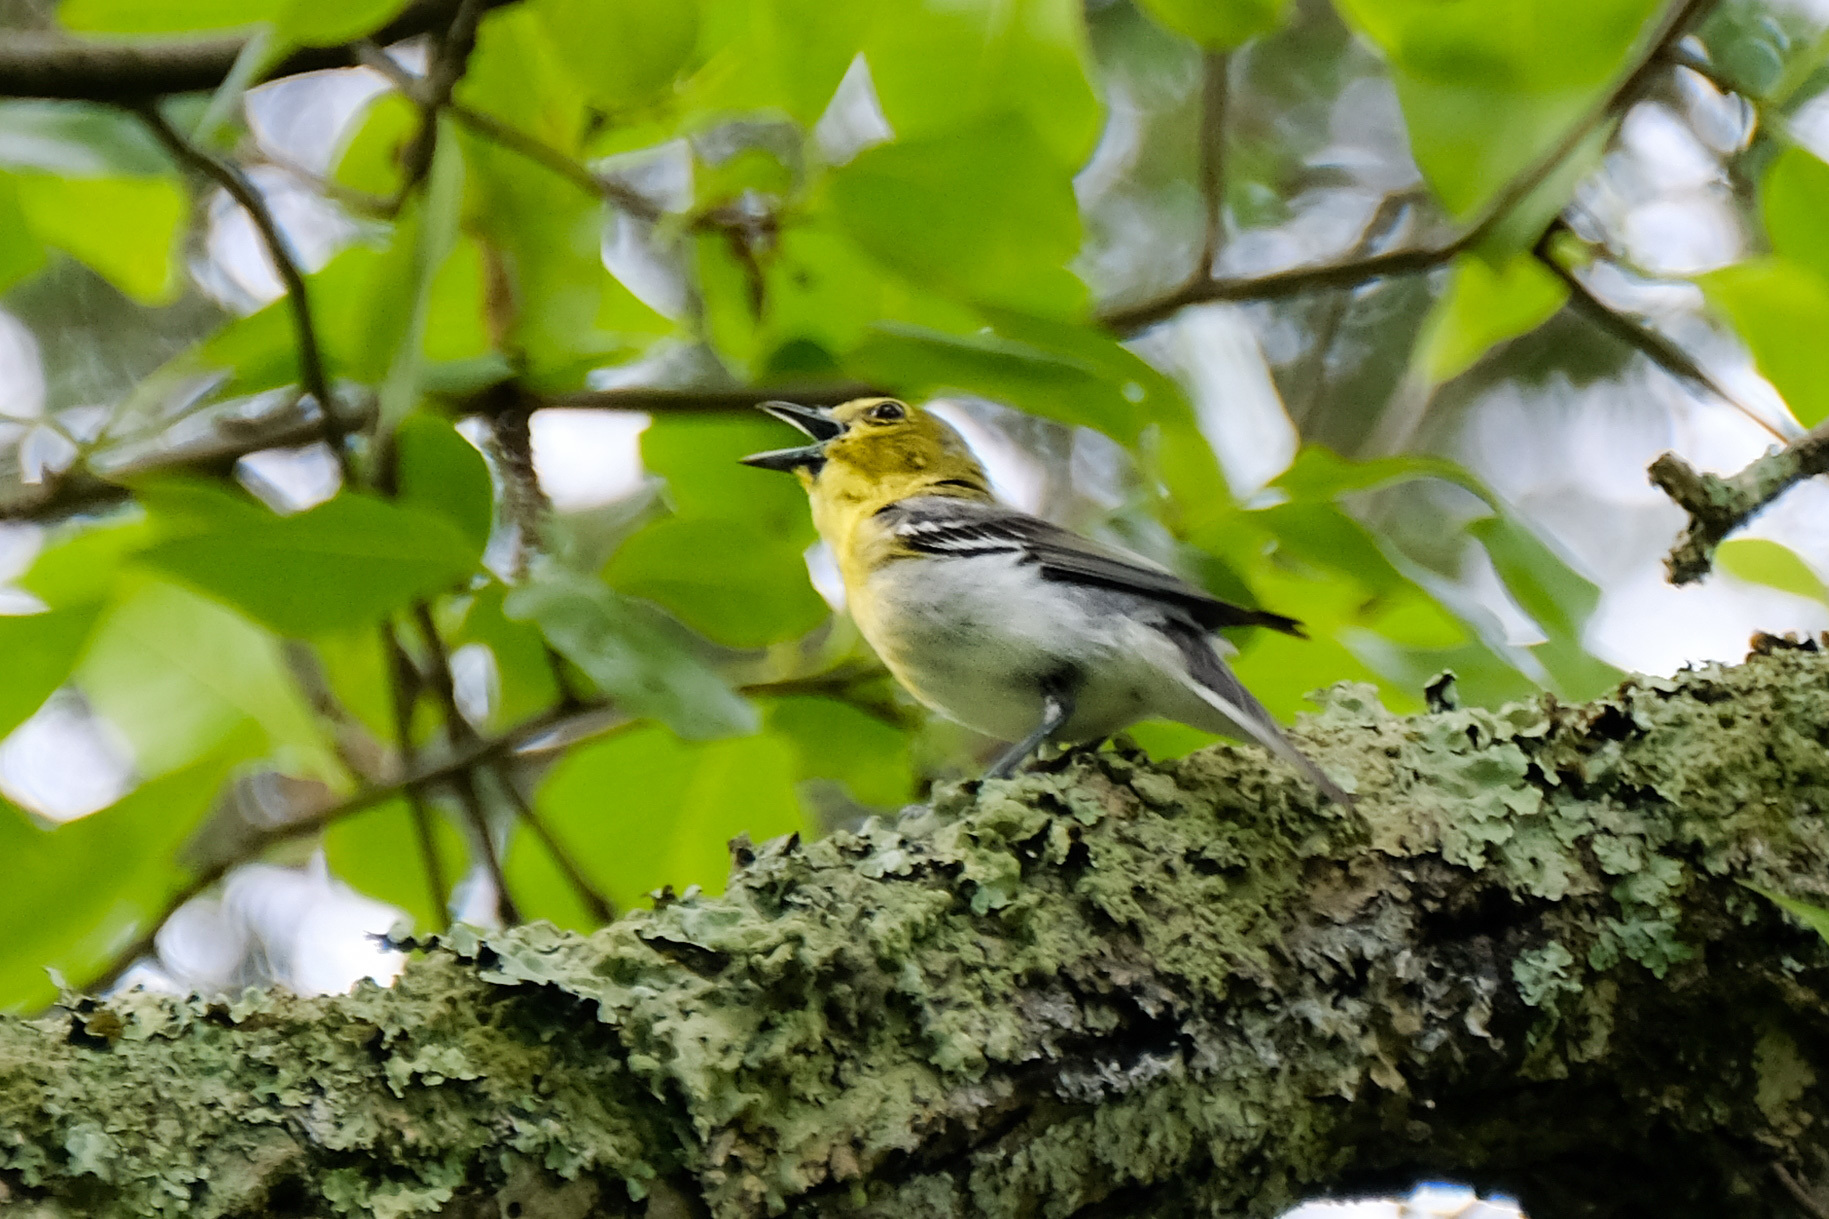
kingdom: Animalia
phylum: Chordata
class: Aves
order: Passeriformes
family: Vireonidae
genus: Vireo
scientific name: Vireo flavifrons
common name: Yellow-throated vireo
